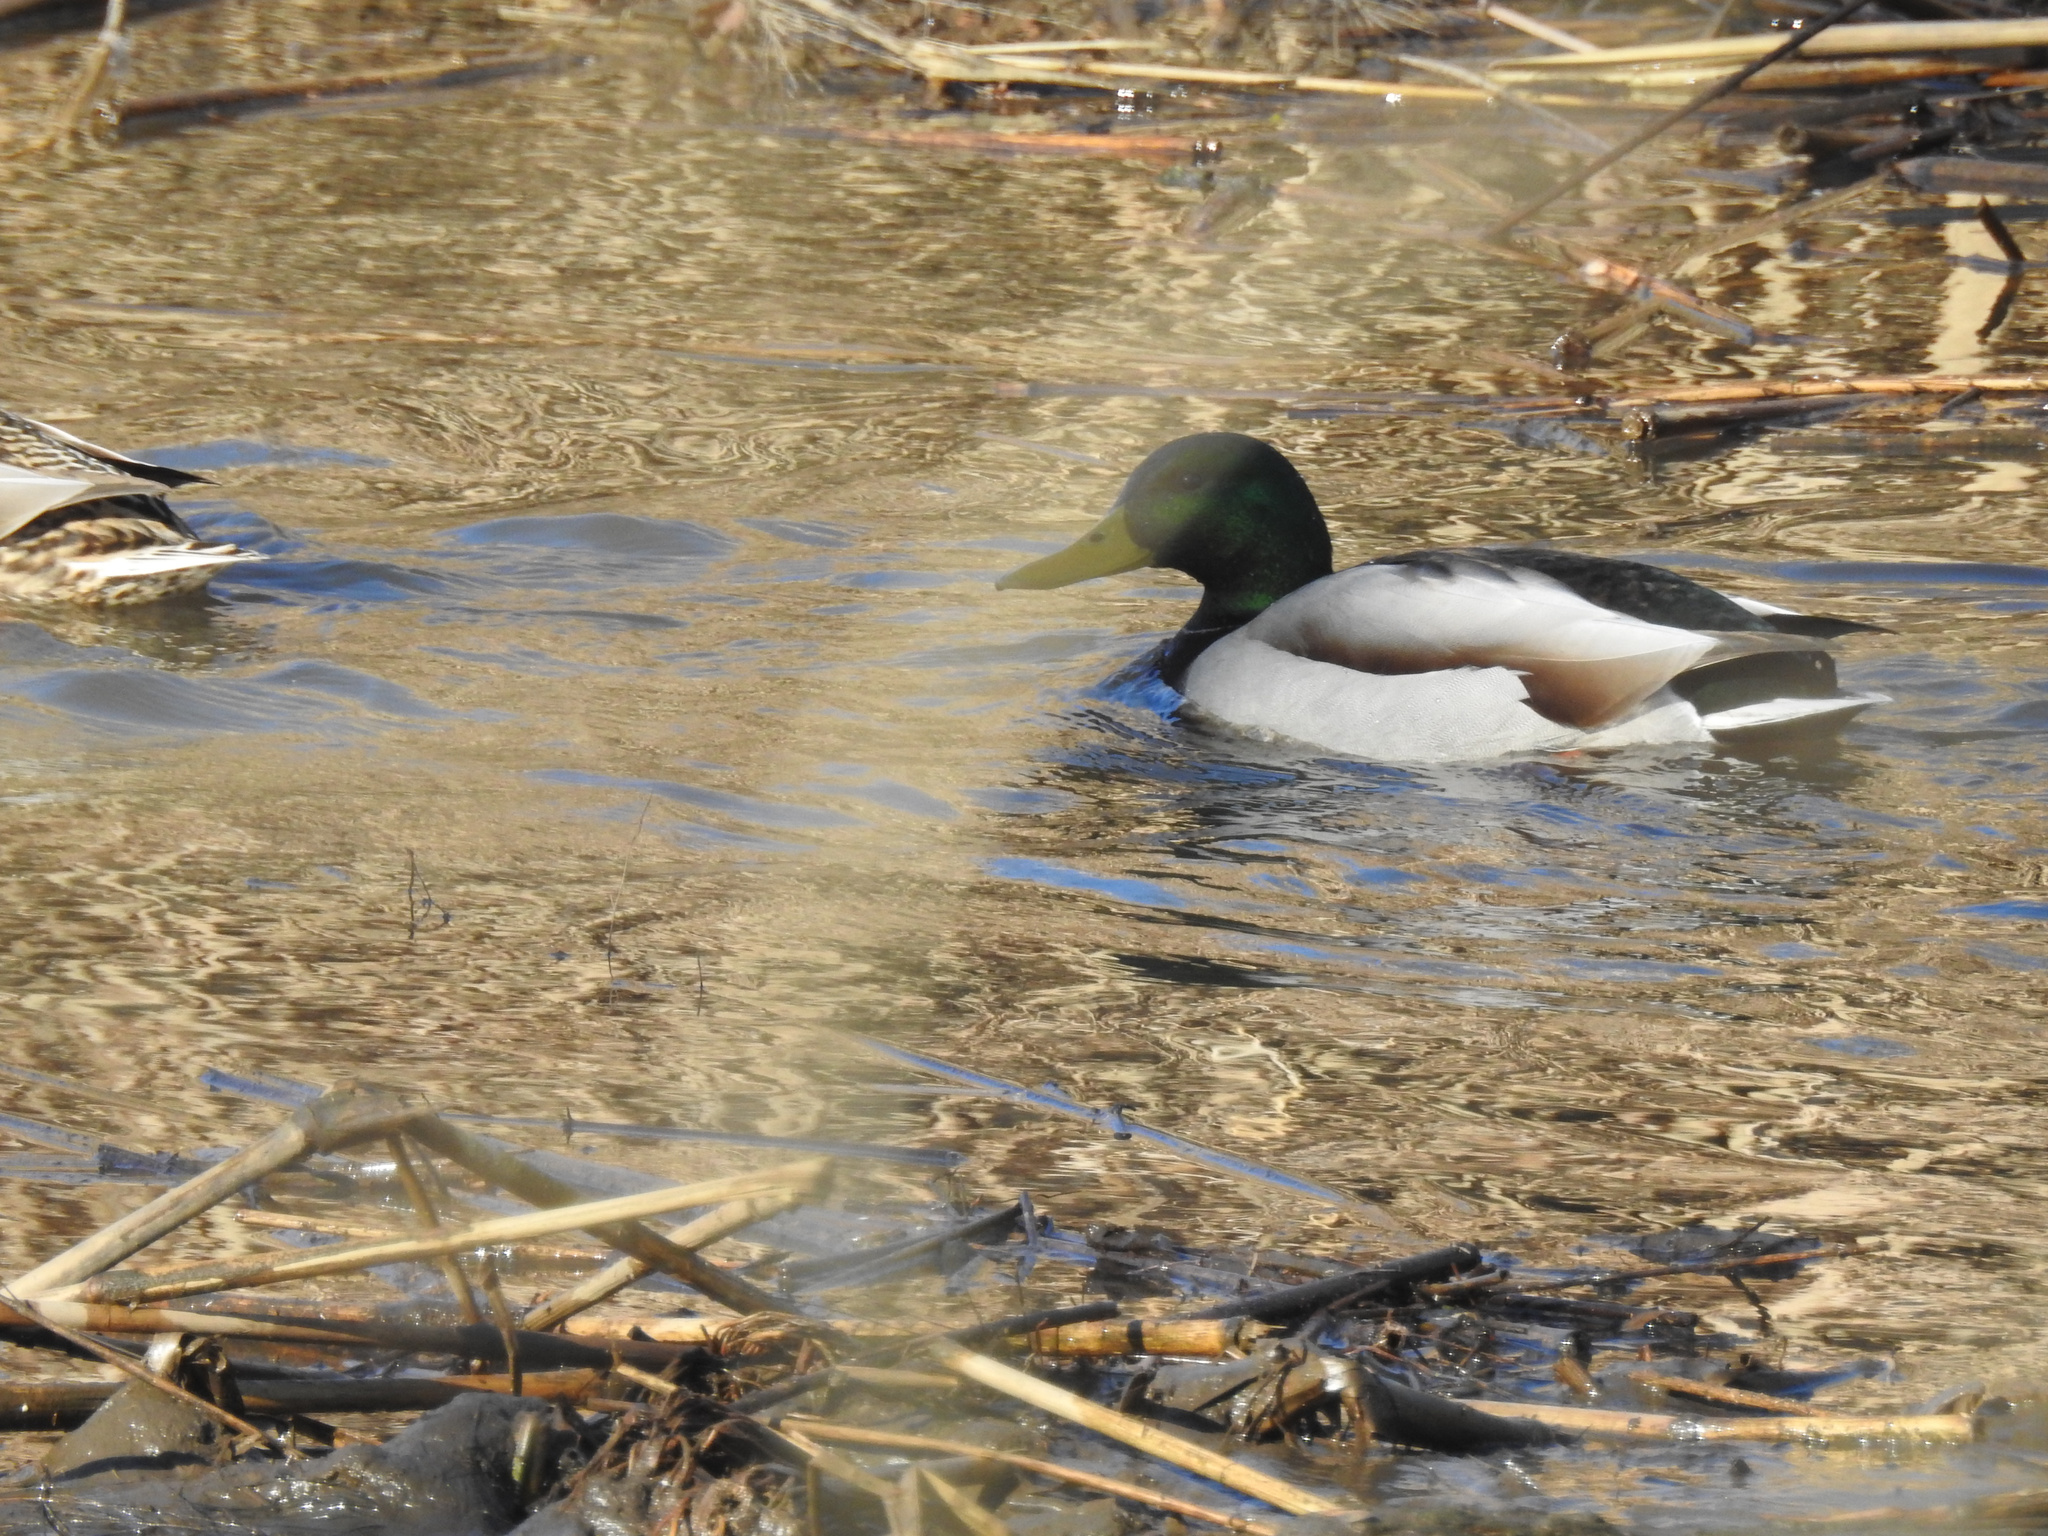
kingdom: Animalia
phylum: Chordata
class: Aves
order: Anseriformes
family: Anatidae
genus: Anas
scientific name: Anas platyrhynchos
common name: Mallard
